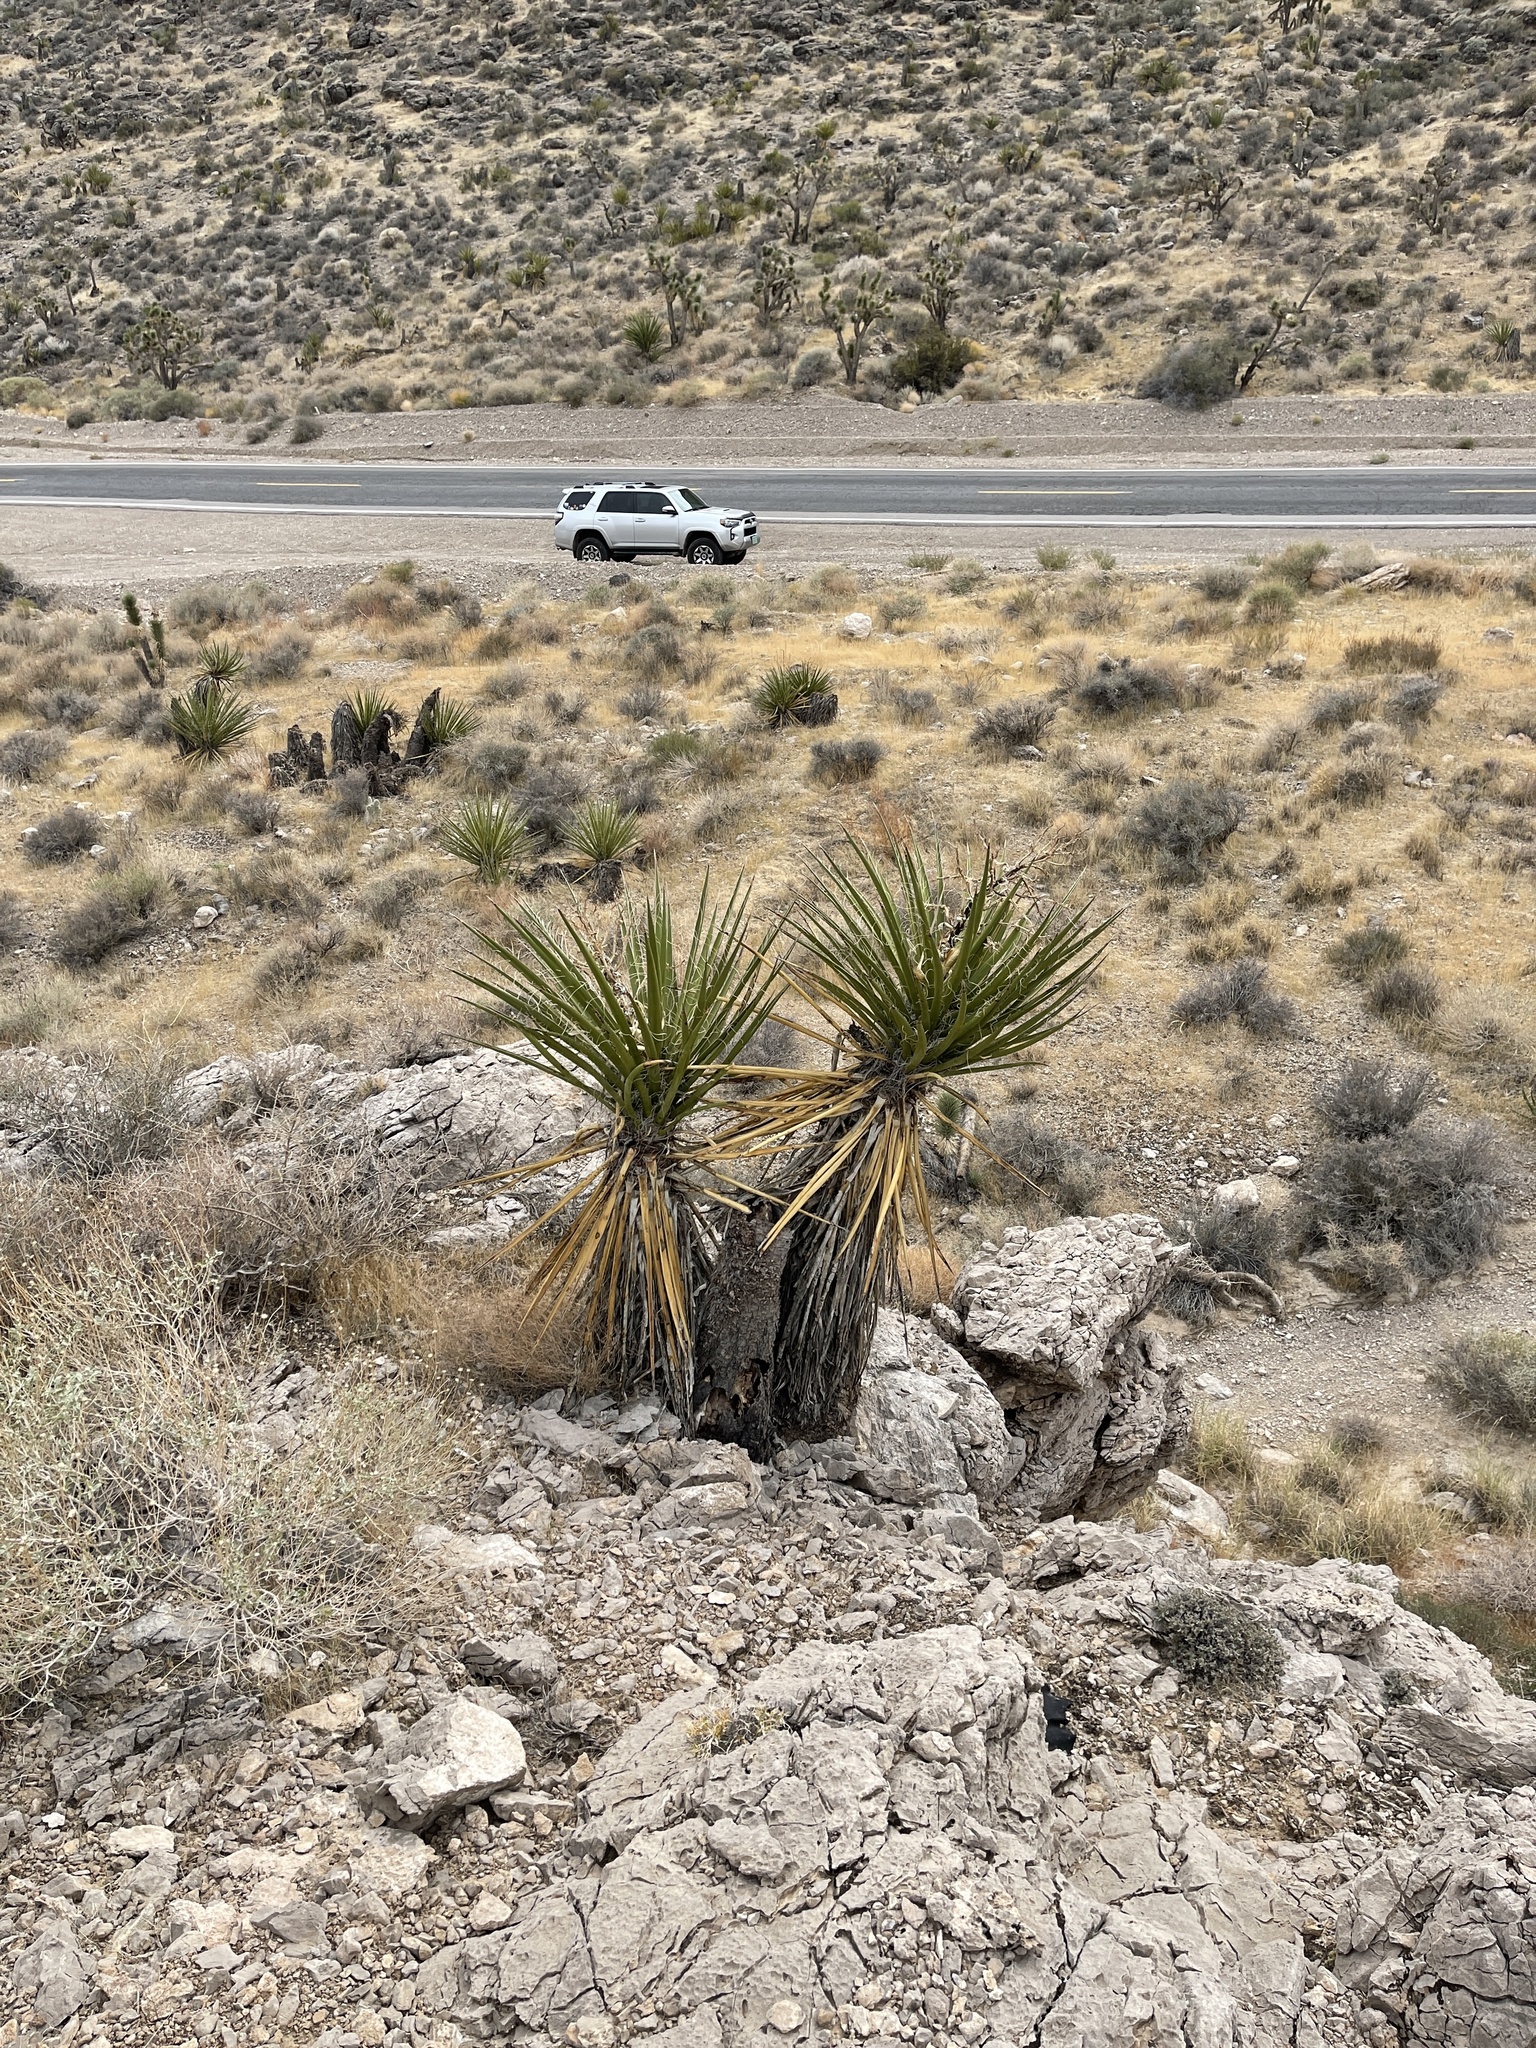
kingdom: Plantae
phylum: Tracheophyta
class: Liliopsida
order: Asparagales
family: Asparagaceae
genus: Yucca
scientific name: Yucca schidigera
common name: Mojave yucca
